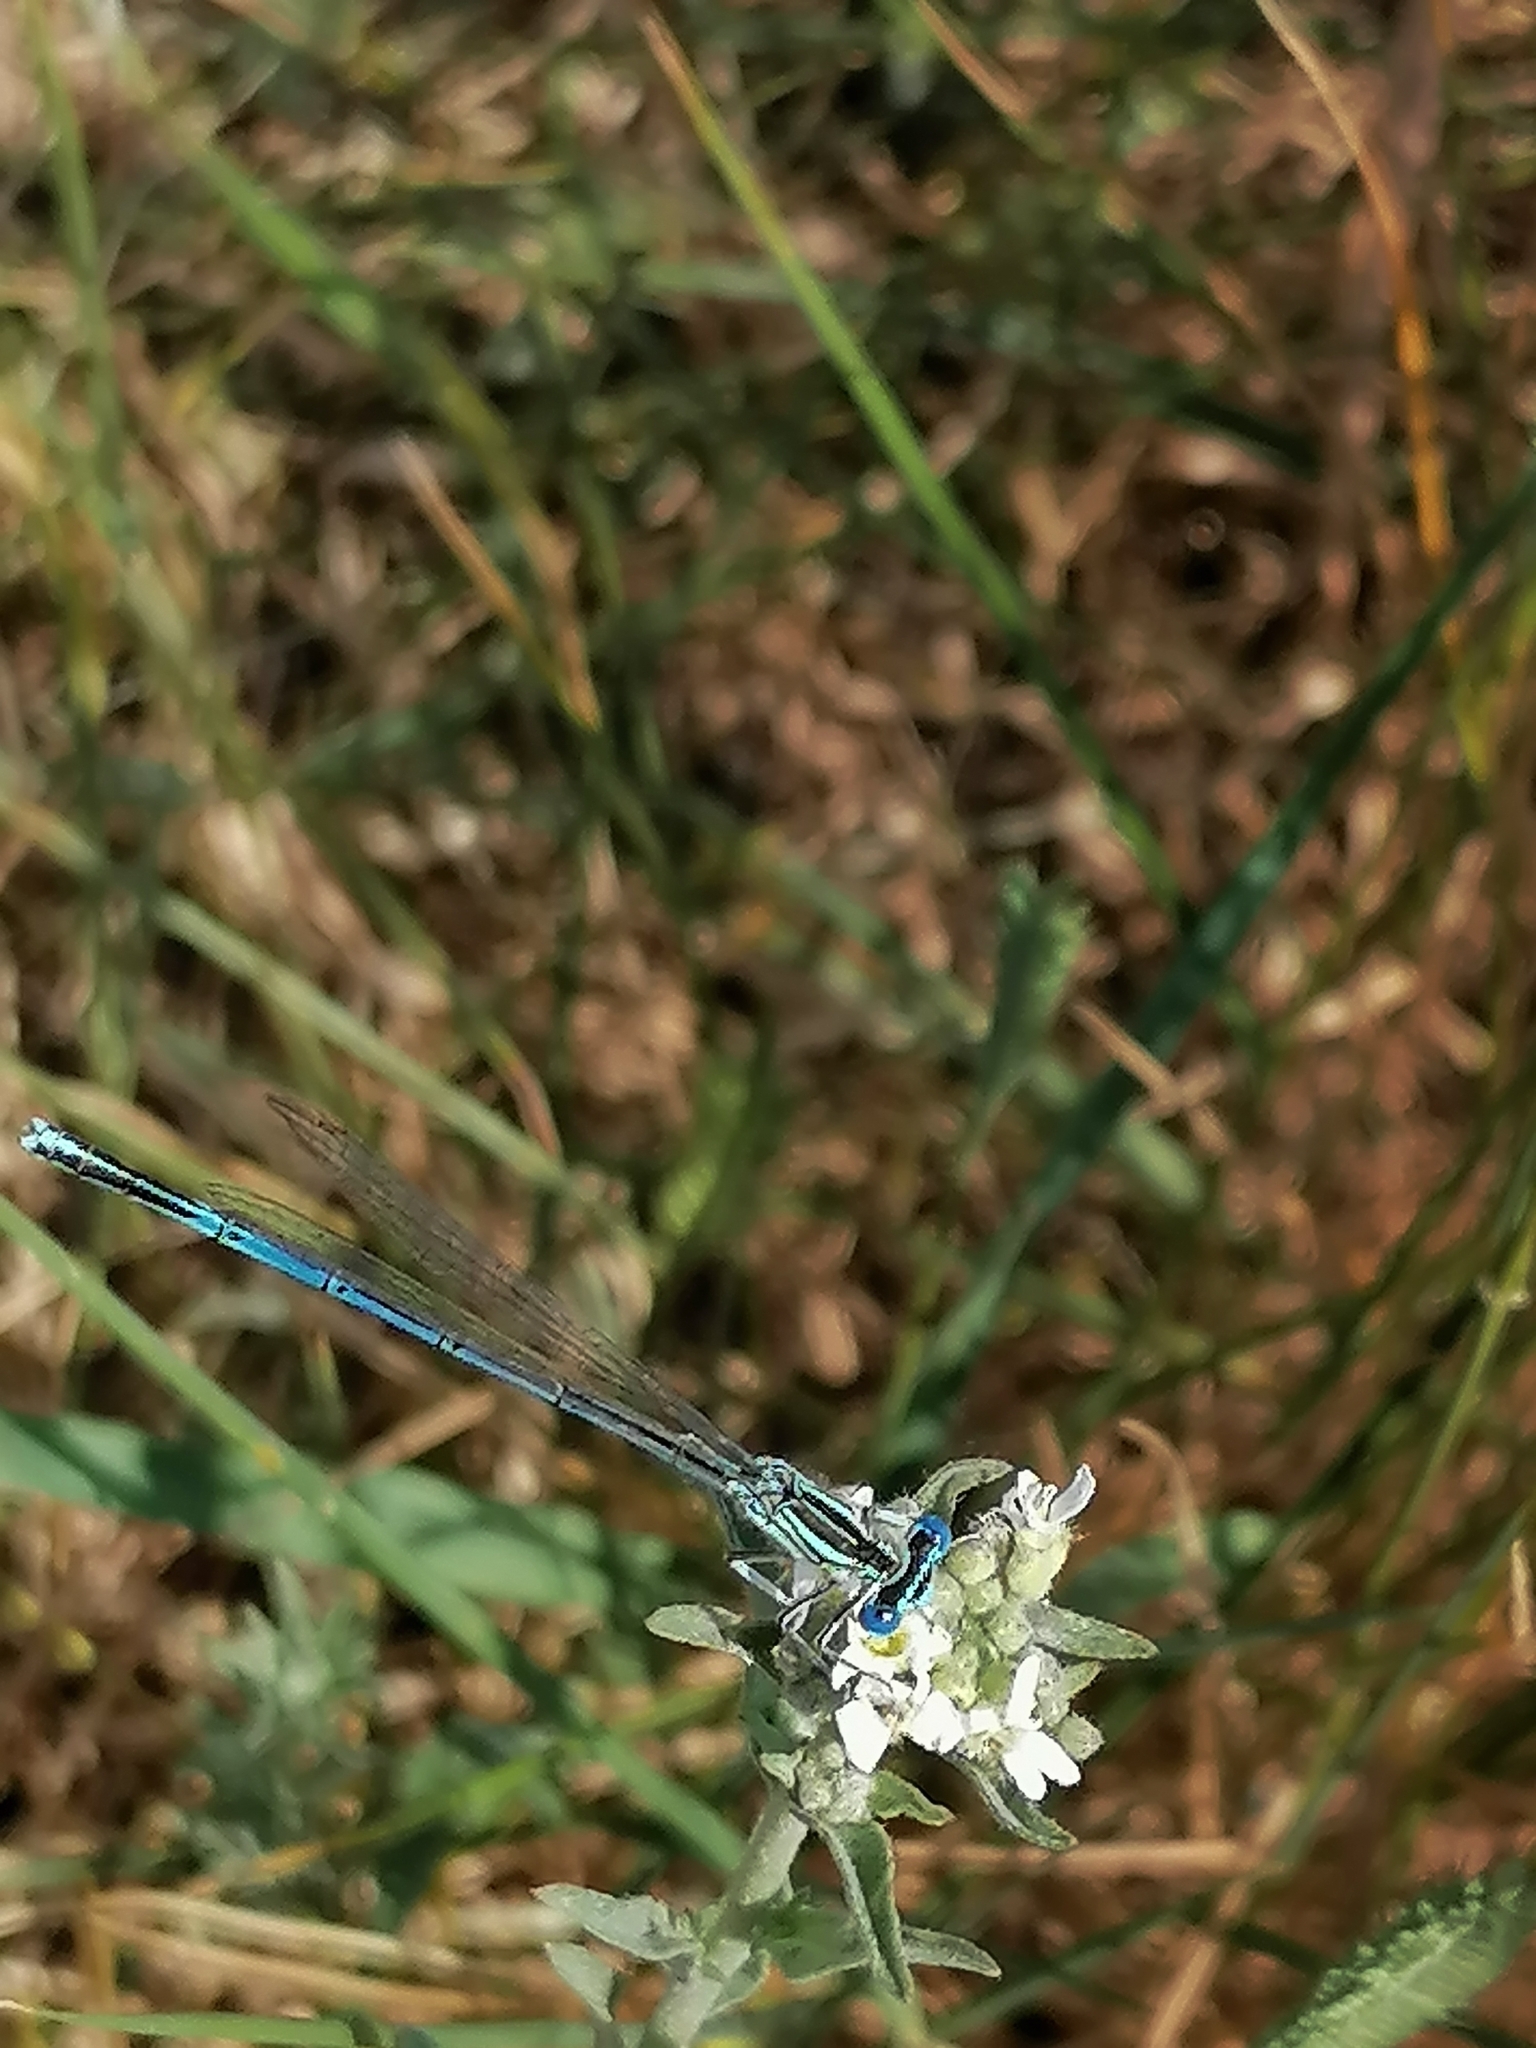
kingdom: Animalia
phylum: Arthropoda
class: Insecta
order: Odonata
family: Platycnemididae
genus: Platycnemis
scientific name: Platycnemis pennipes
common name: White-legged damselfly
